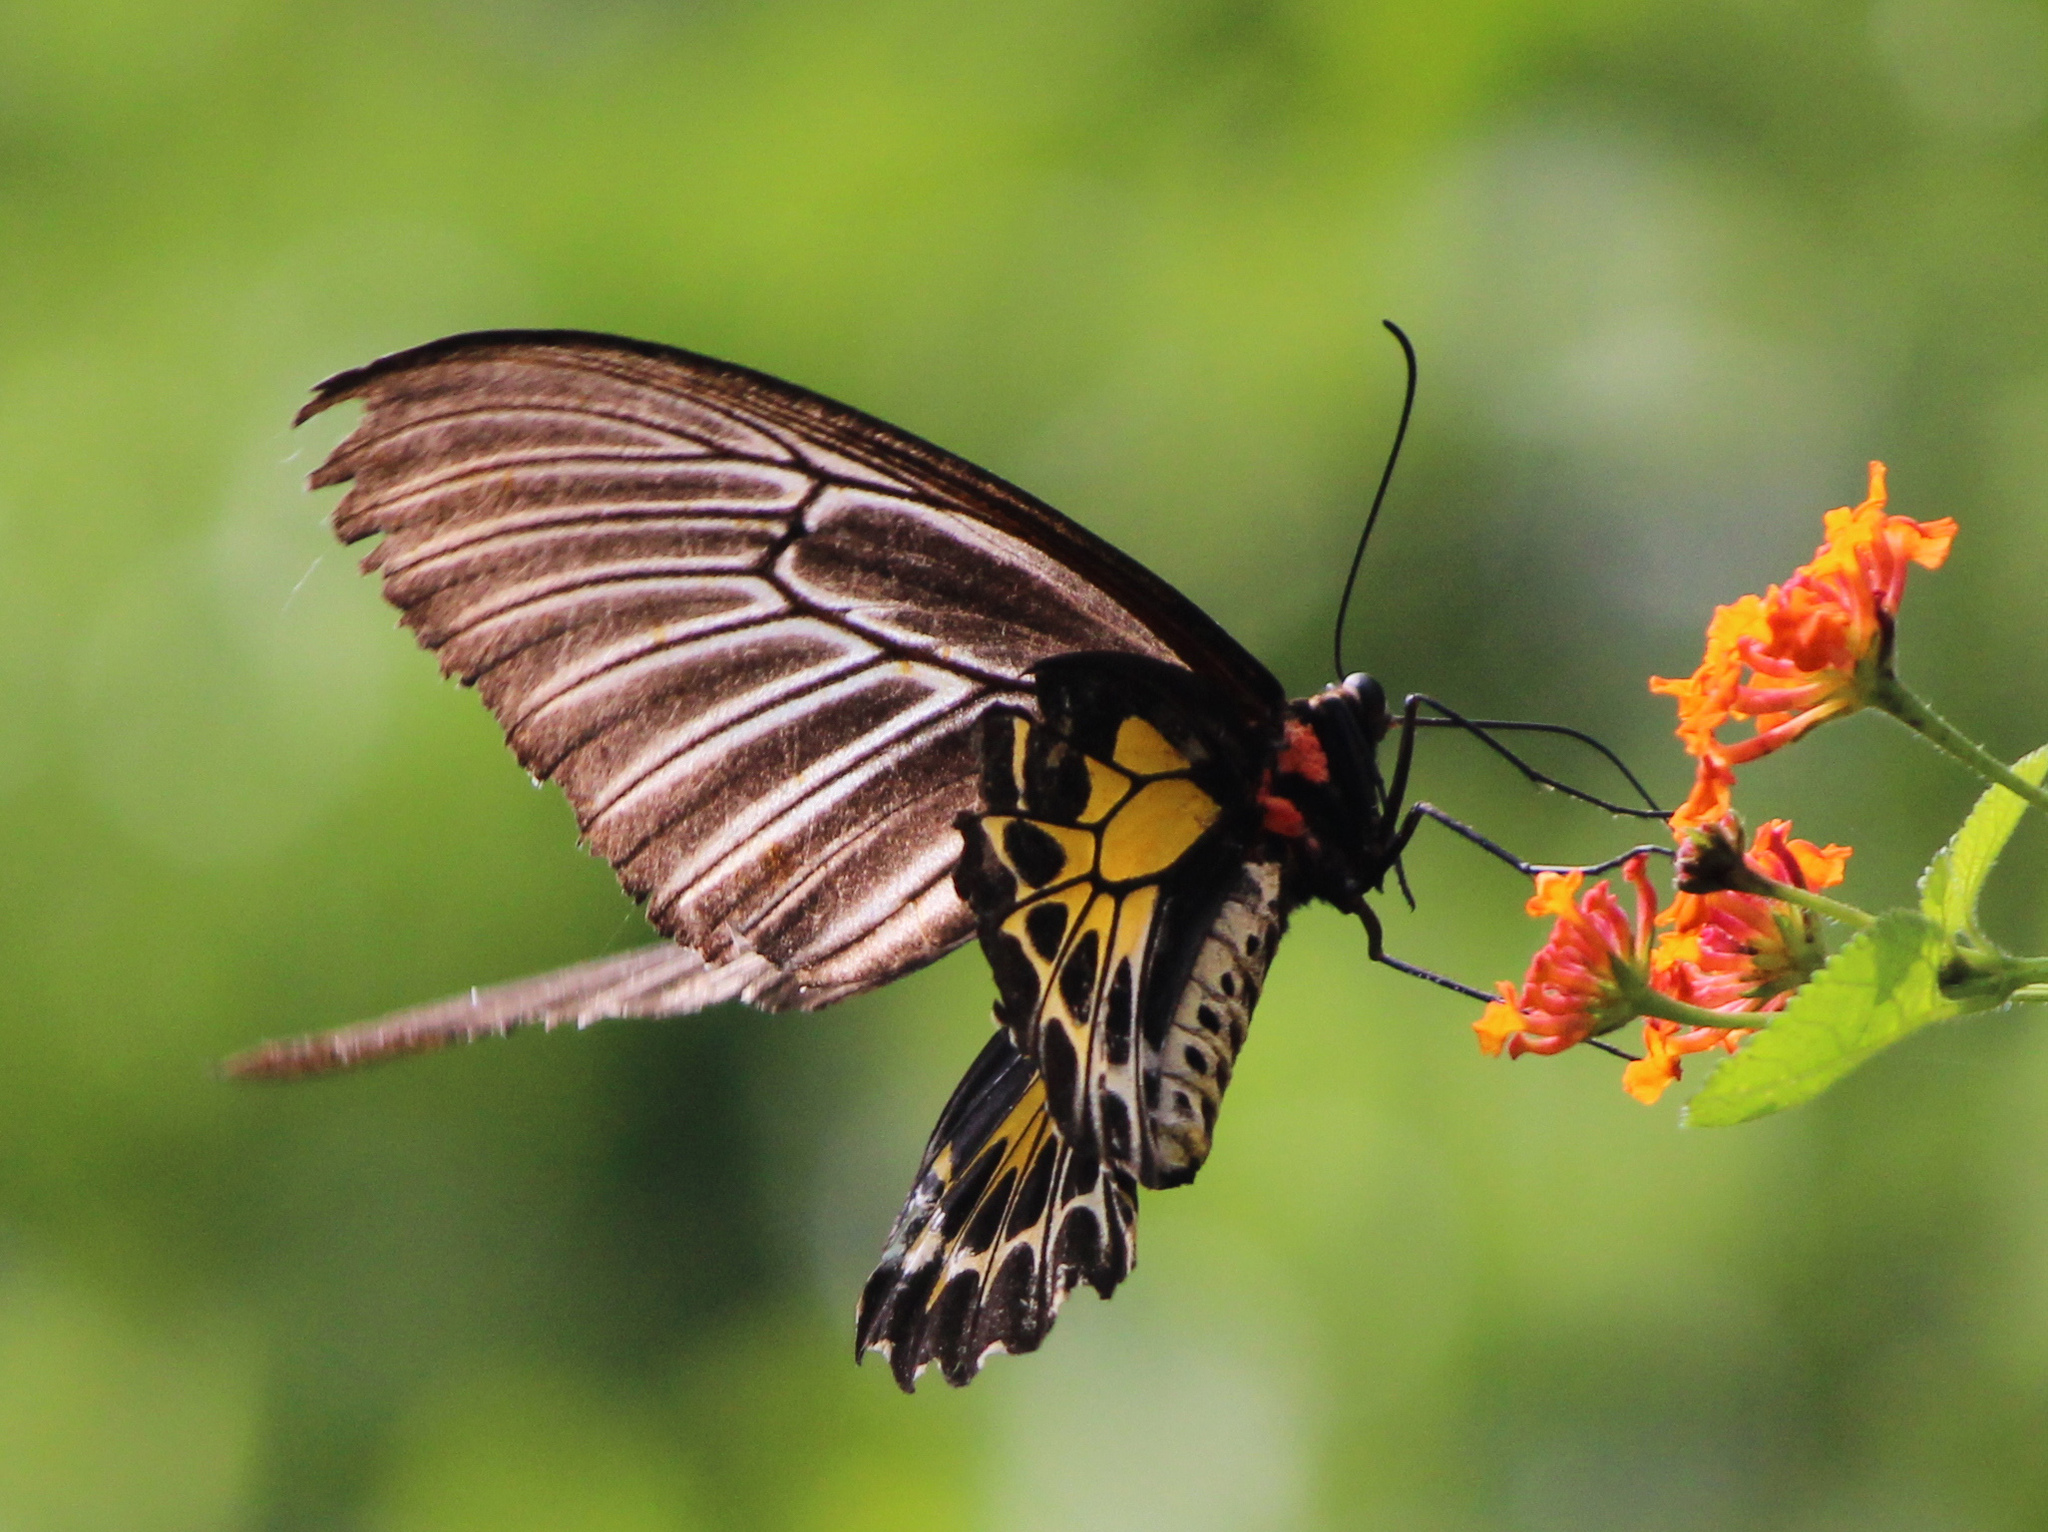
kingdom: Animalia
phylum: Arthropoda
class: Insecta
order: Lepidoptera
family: Papilionidae
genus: Troides
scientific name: Troides minos
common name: Malabar birdwing
